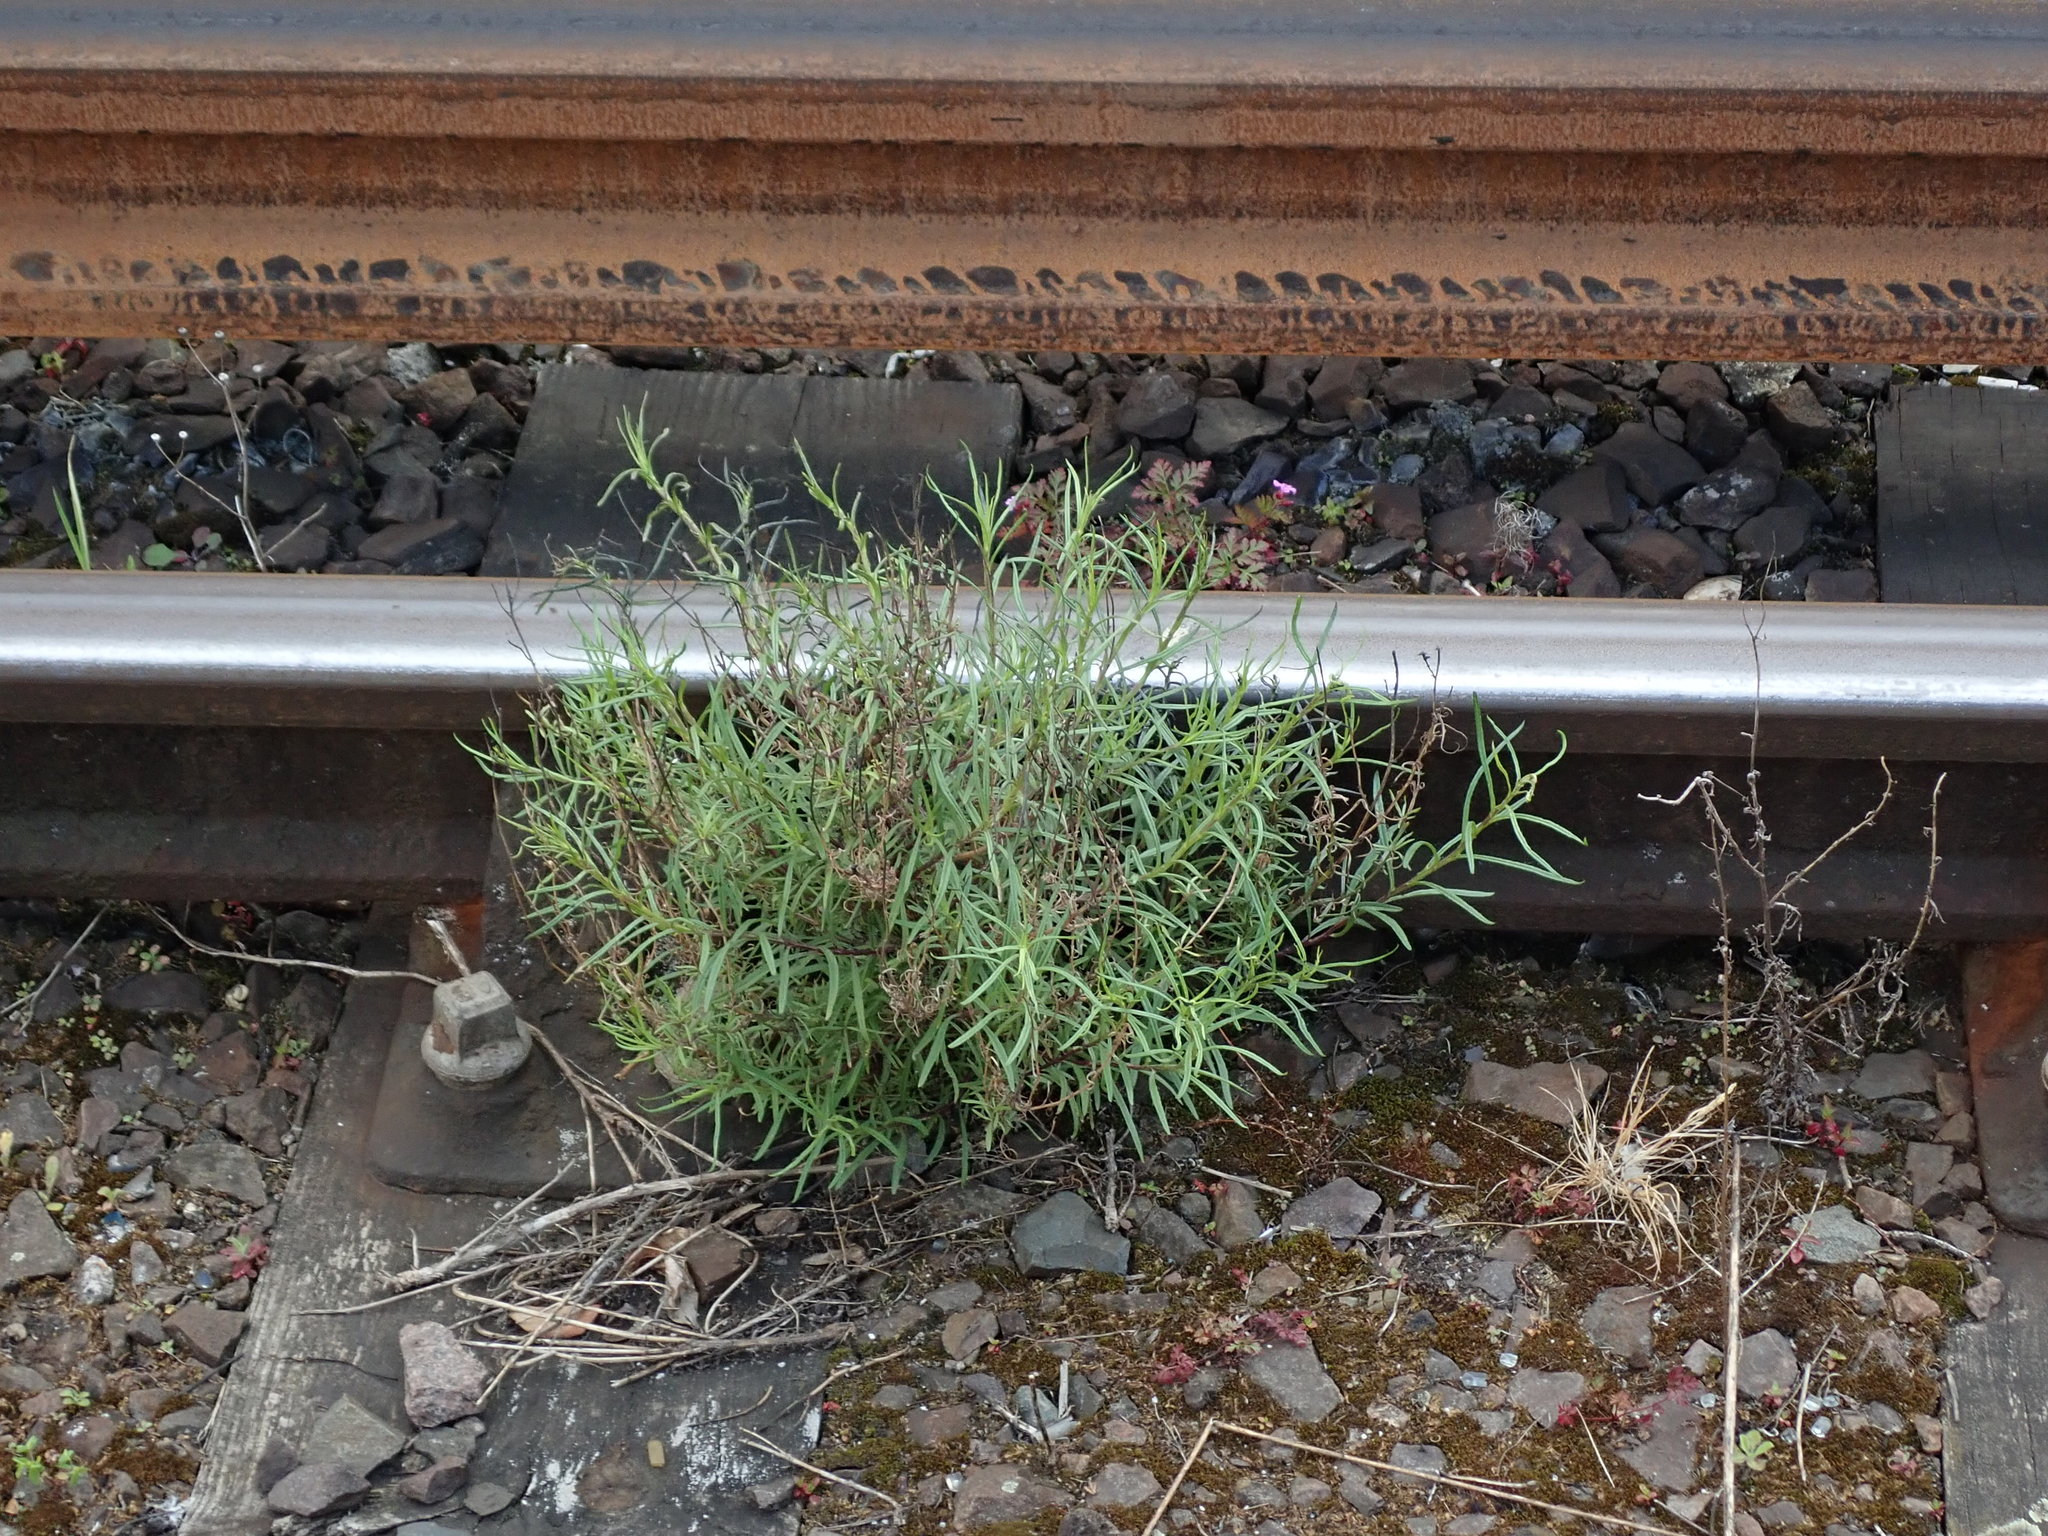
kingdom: Plantae
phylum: Tracheophyta
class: Magnoliopsida
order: Asterales
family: Asteraceae
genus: Senecio
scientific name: Senecio inaequidens
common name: Narrow-leaved ragwort
